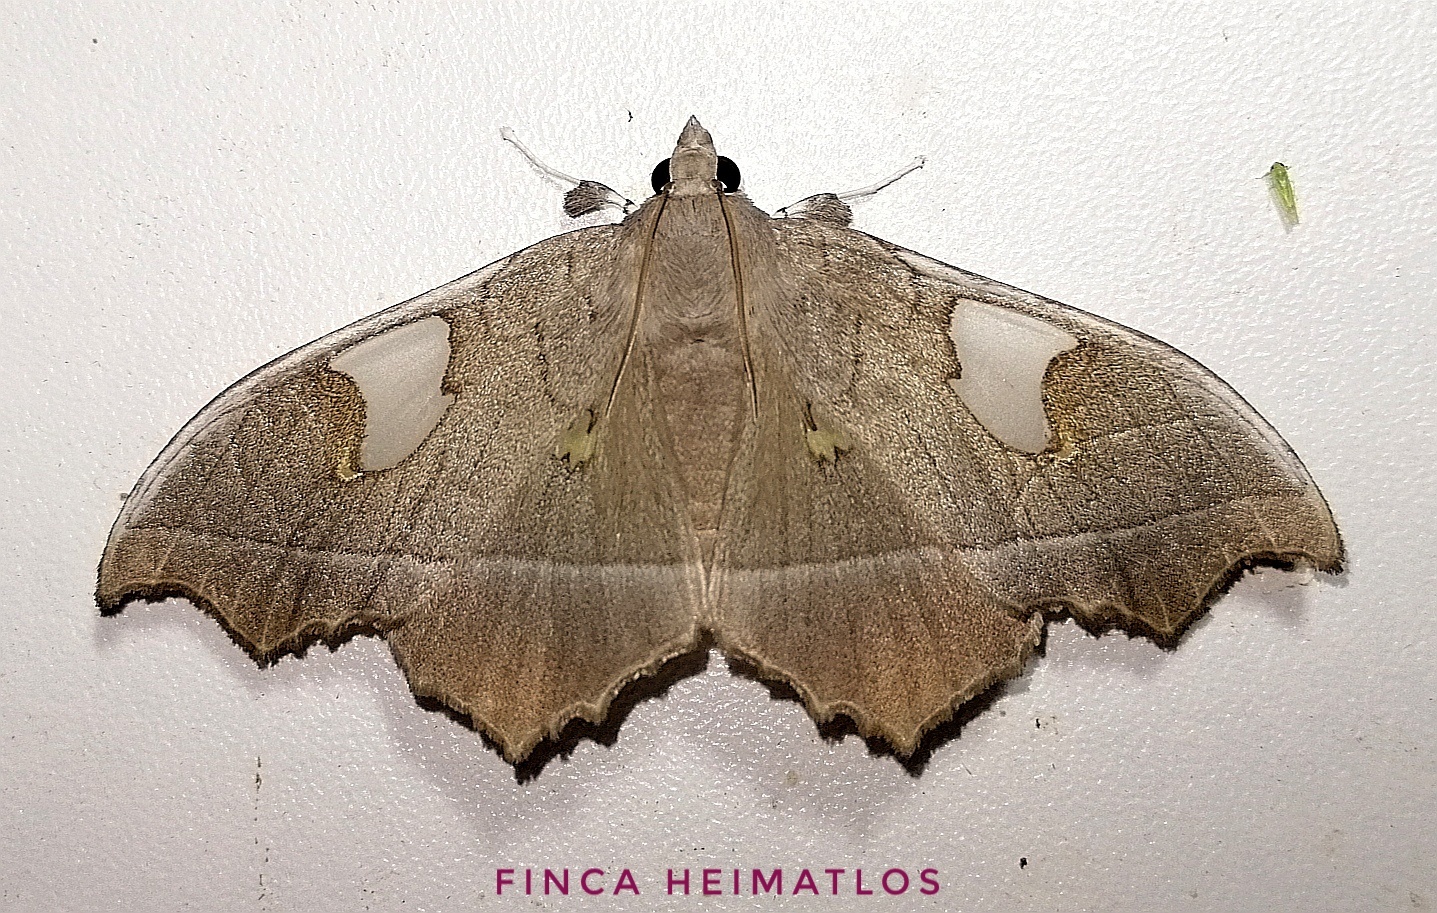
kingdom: Animalia
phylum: Arthropoda
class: Insecta
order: Lepidoptera
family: Crambidae
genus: Midila
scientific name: Midila quadrifenestrata
